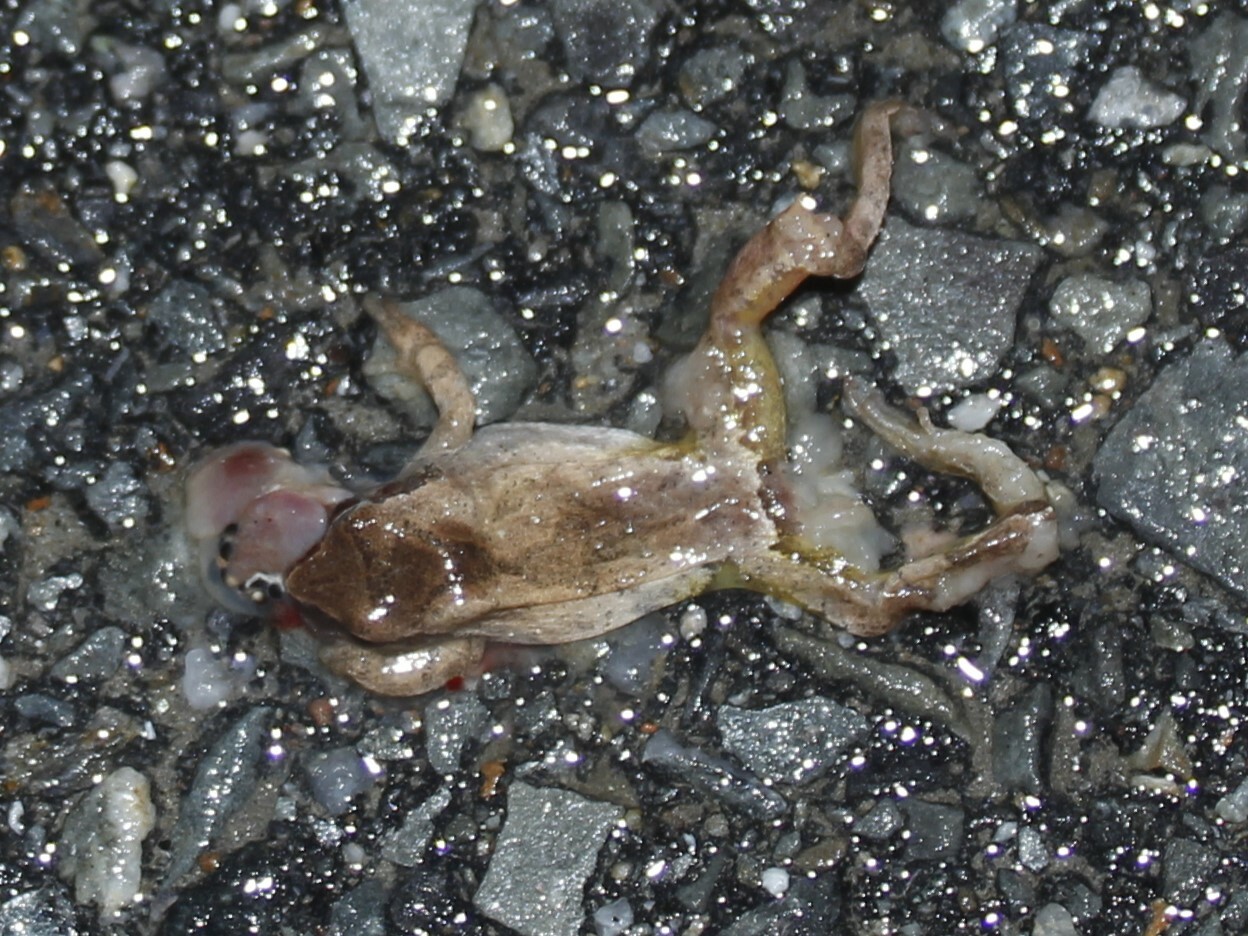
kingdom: Animalia
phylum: Chordata
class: Amphibia
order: Anura
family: Hylidae
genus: Pseudacris
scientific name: Pseudacris crucifer
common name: Spring peeper
